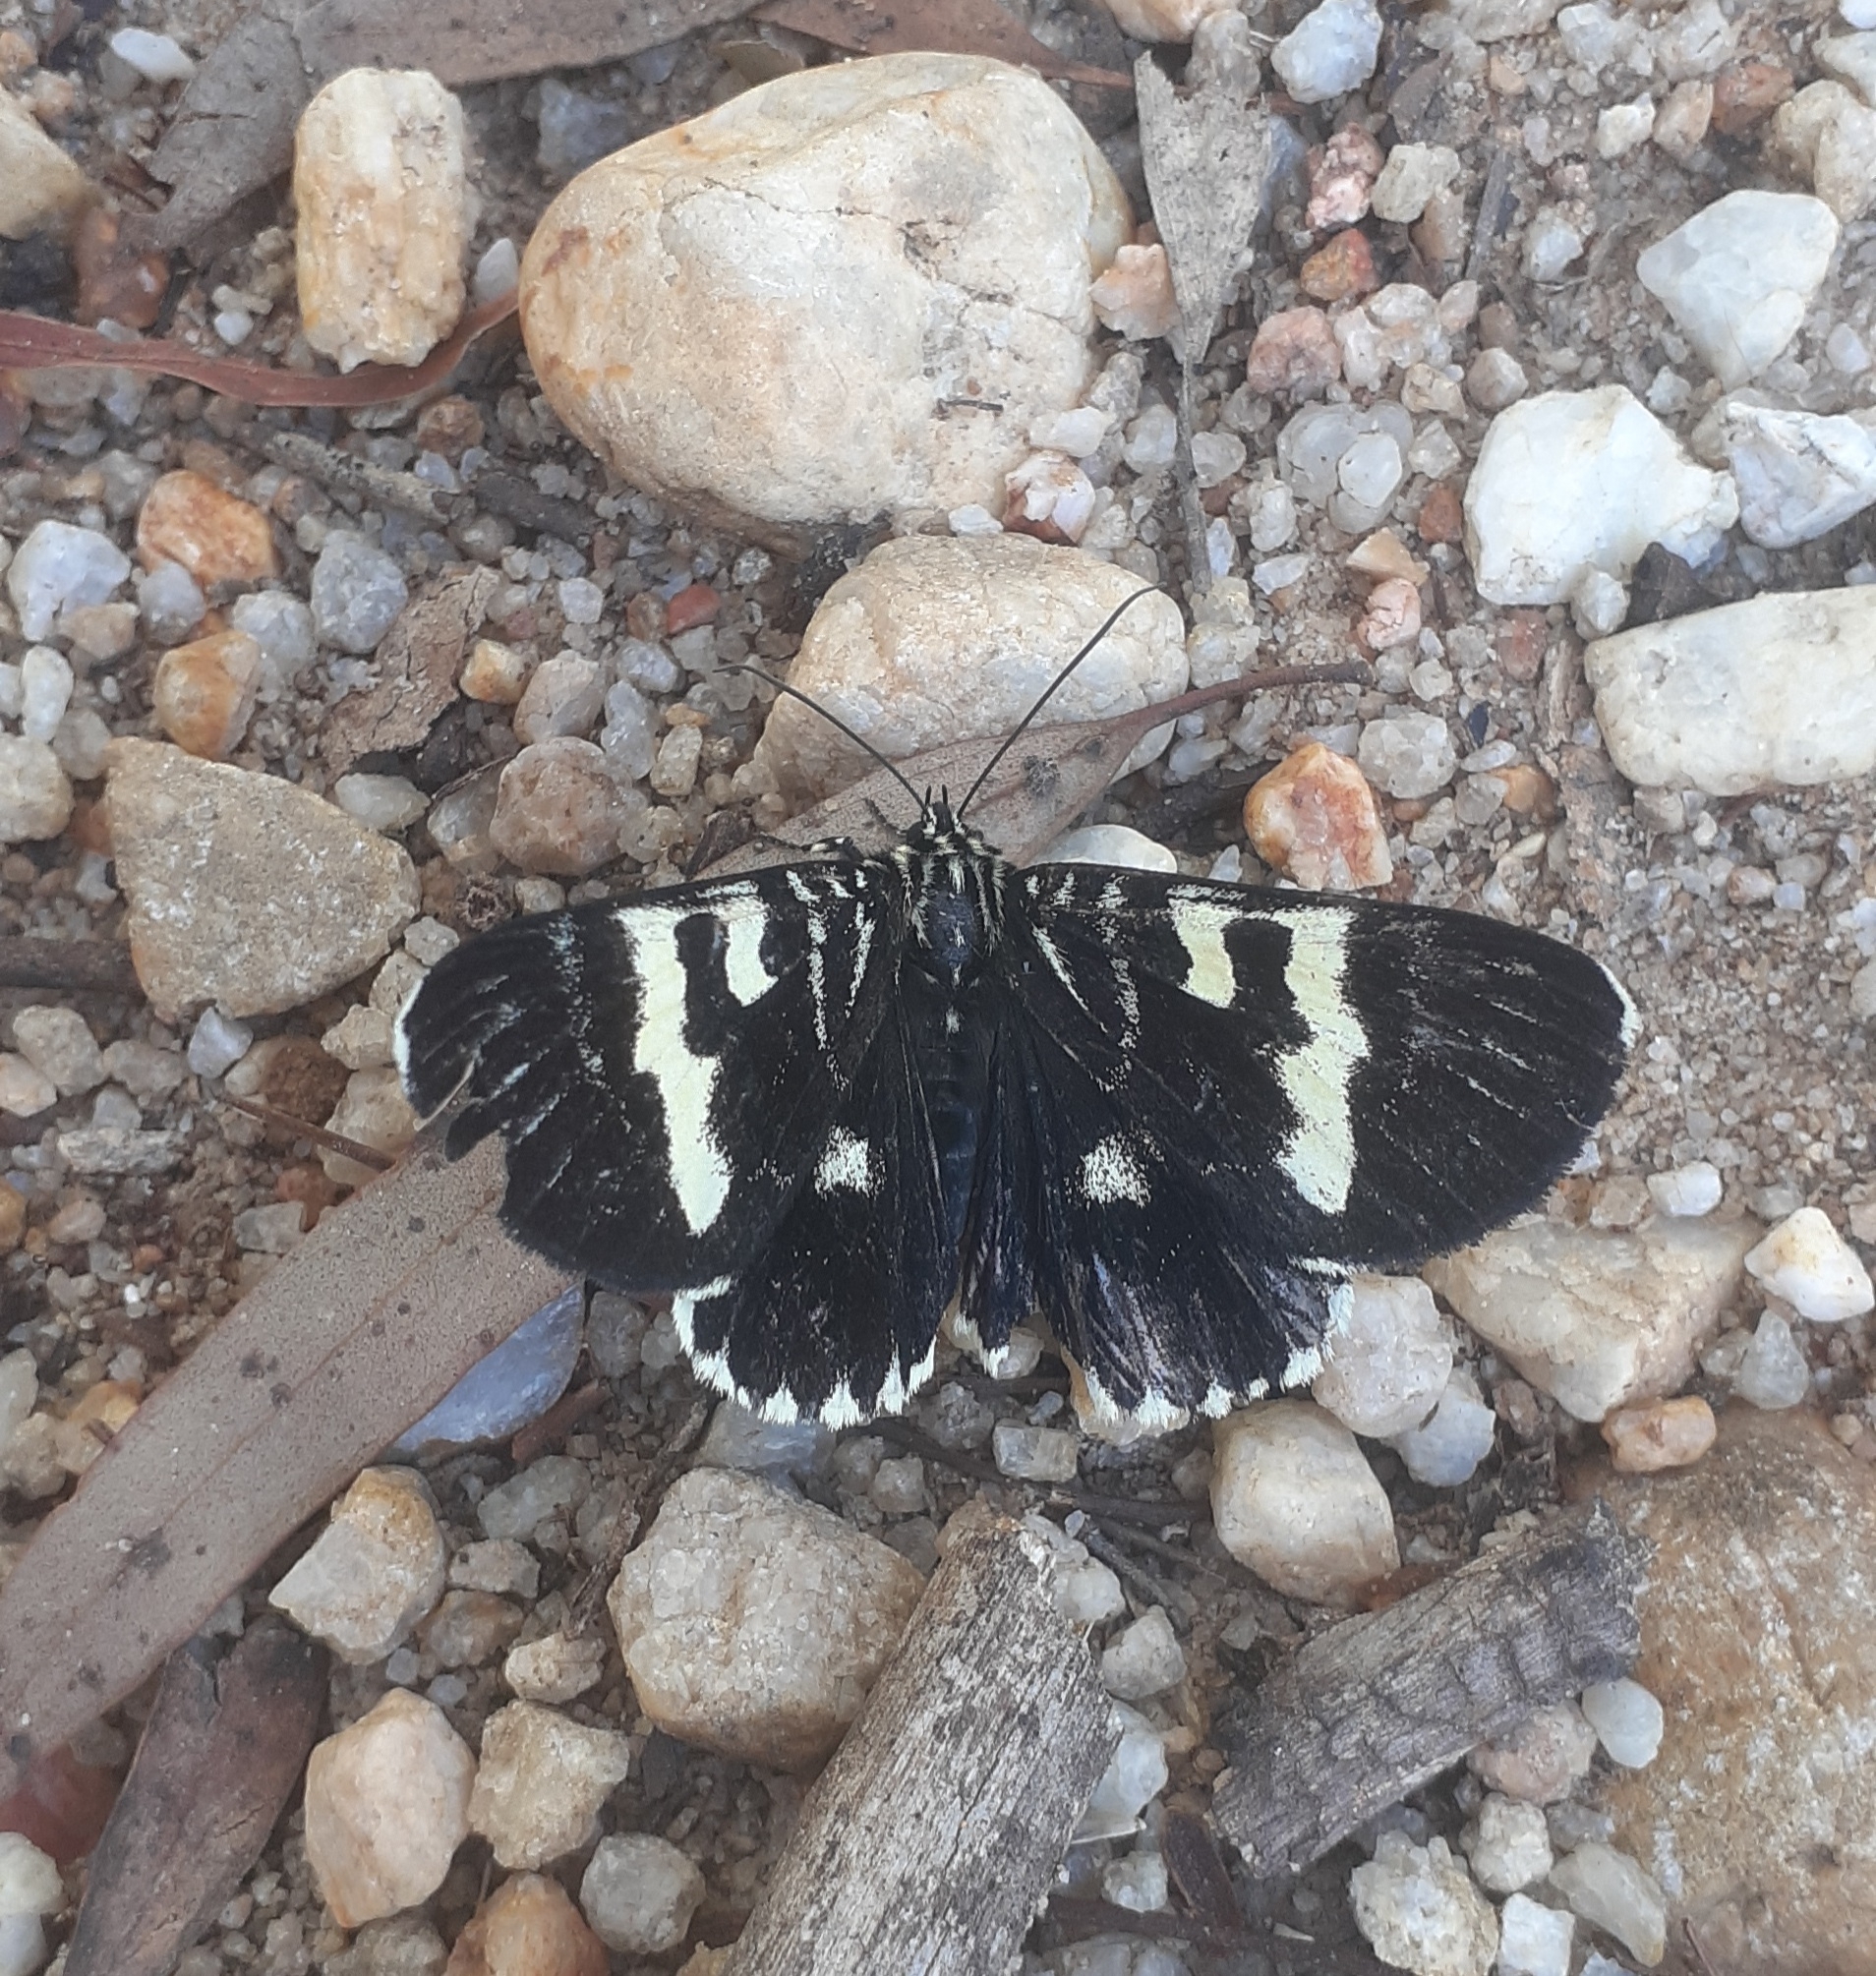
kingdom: Animalia
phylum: Arthropoda
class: Insecta
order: Lepidoptera
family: Noctuidae
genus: Phalaenoides
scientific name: Phalaenoides glycinae
